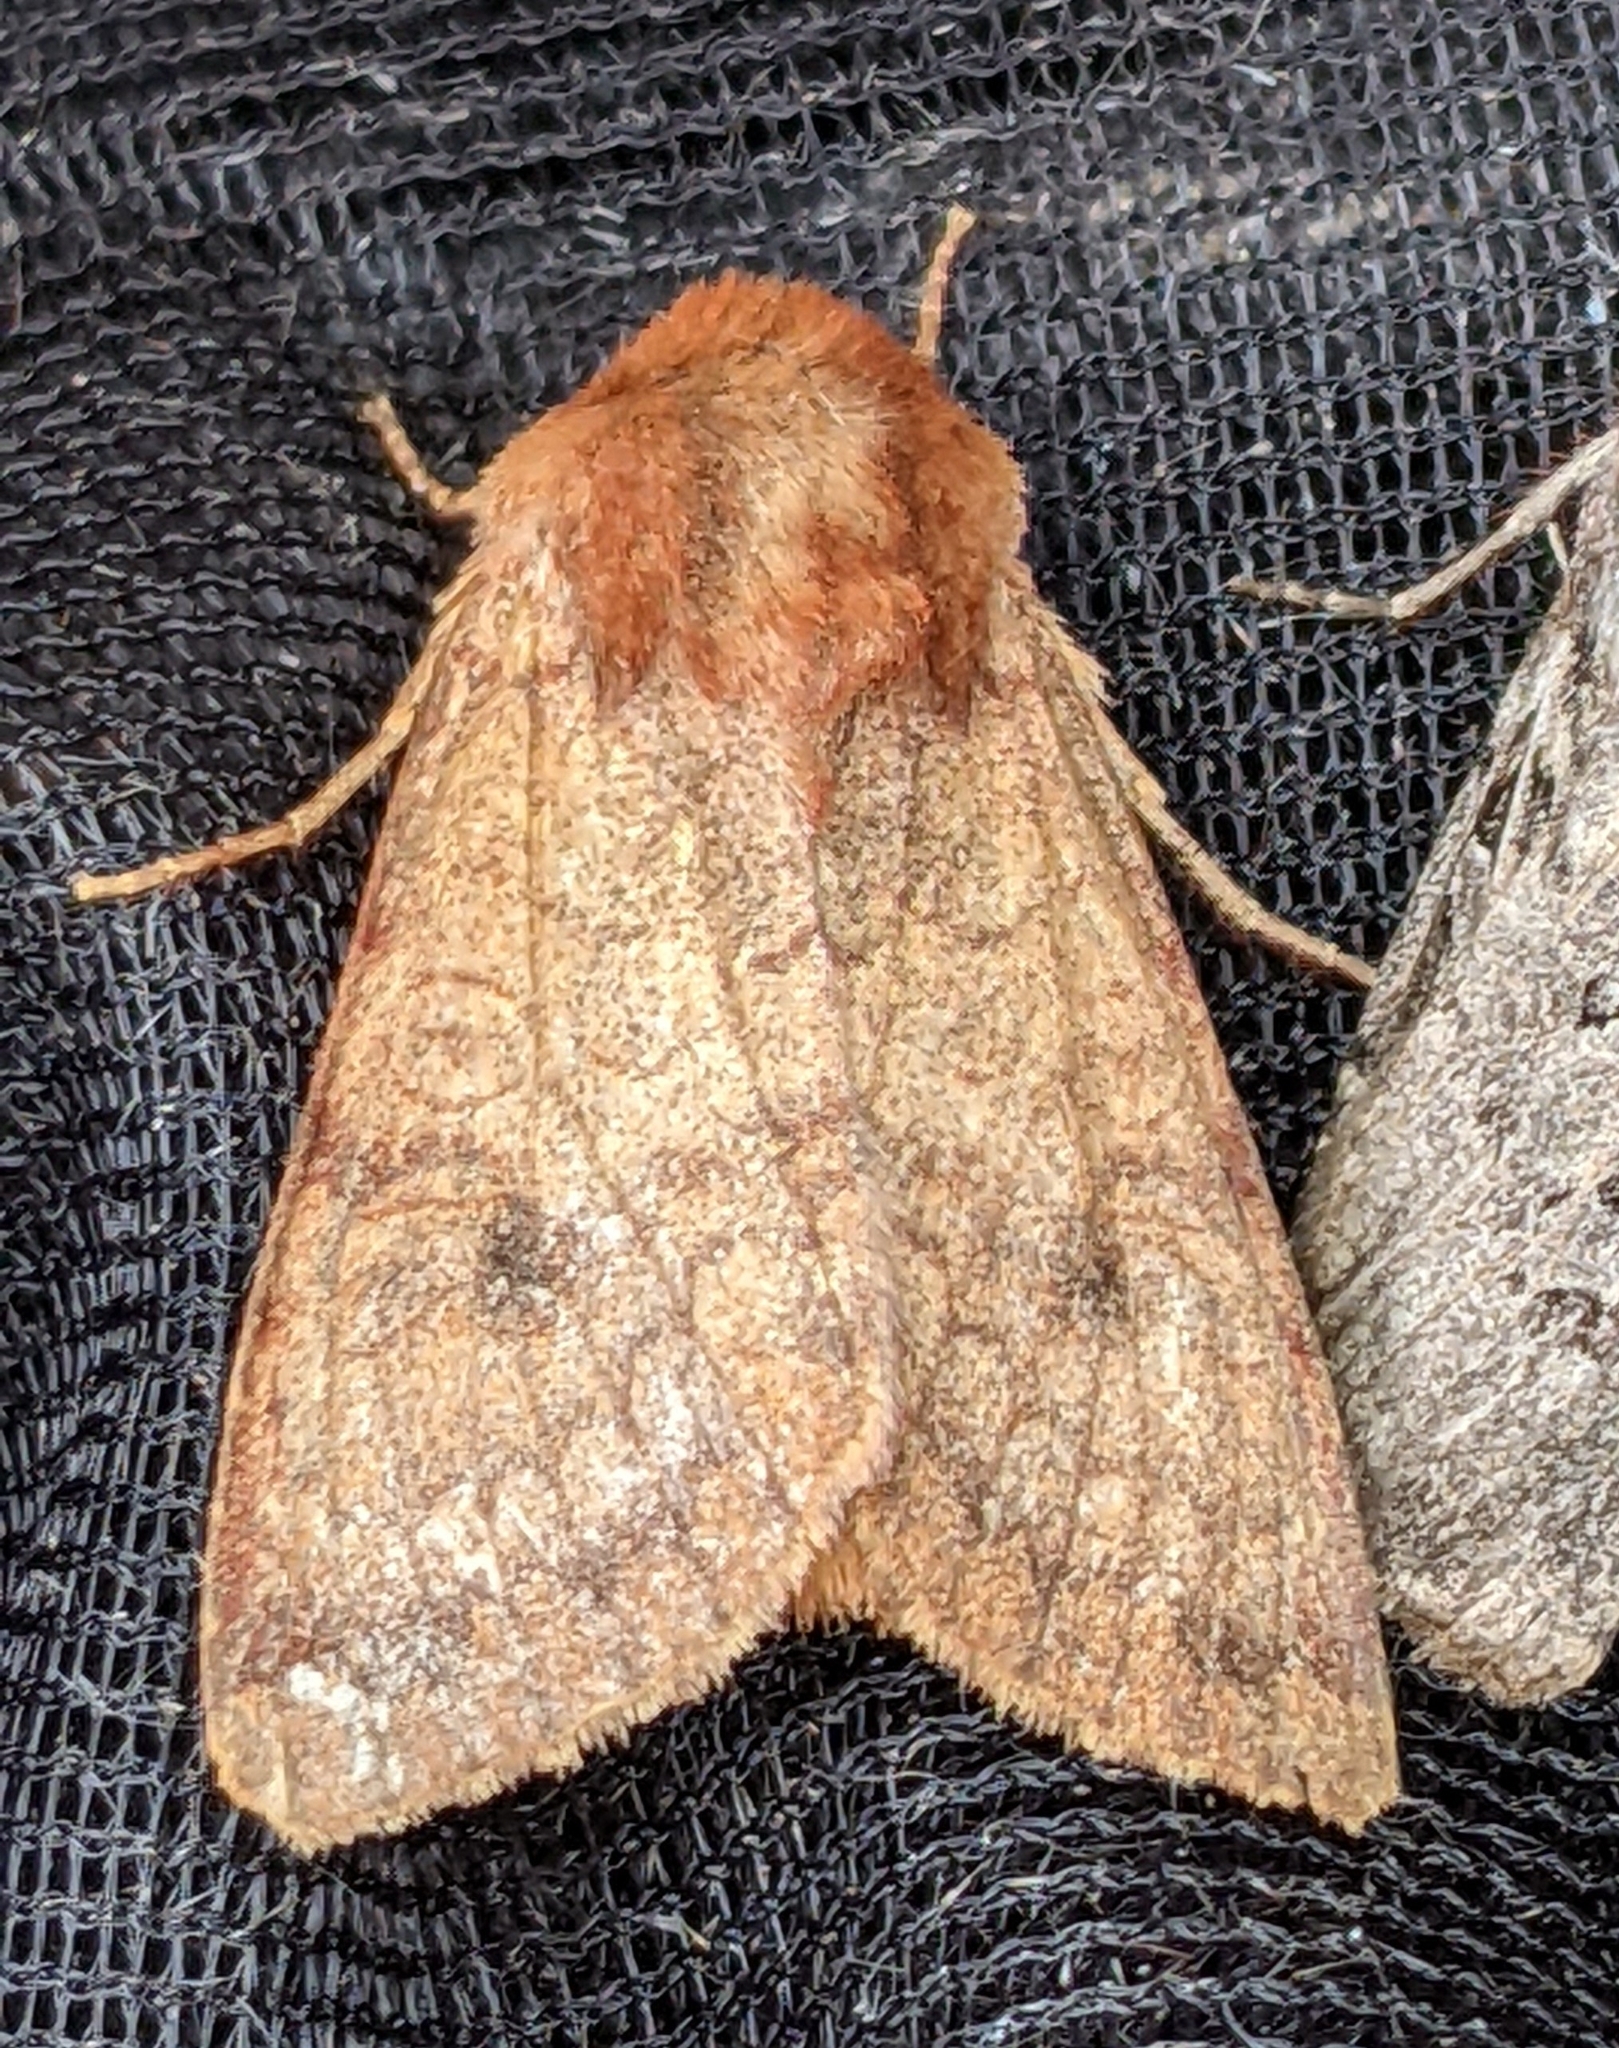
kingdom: Animalia
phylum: Arthropoda
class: Insecta
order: Lepidoptera
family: Noctuidae
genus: Sideridis
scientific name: Sideridis rosea
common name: Rosewing moth
